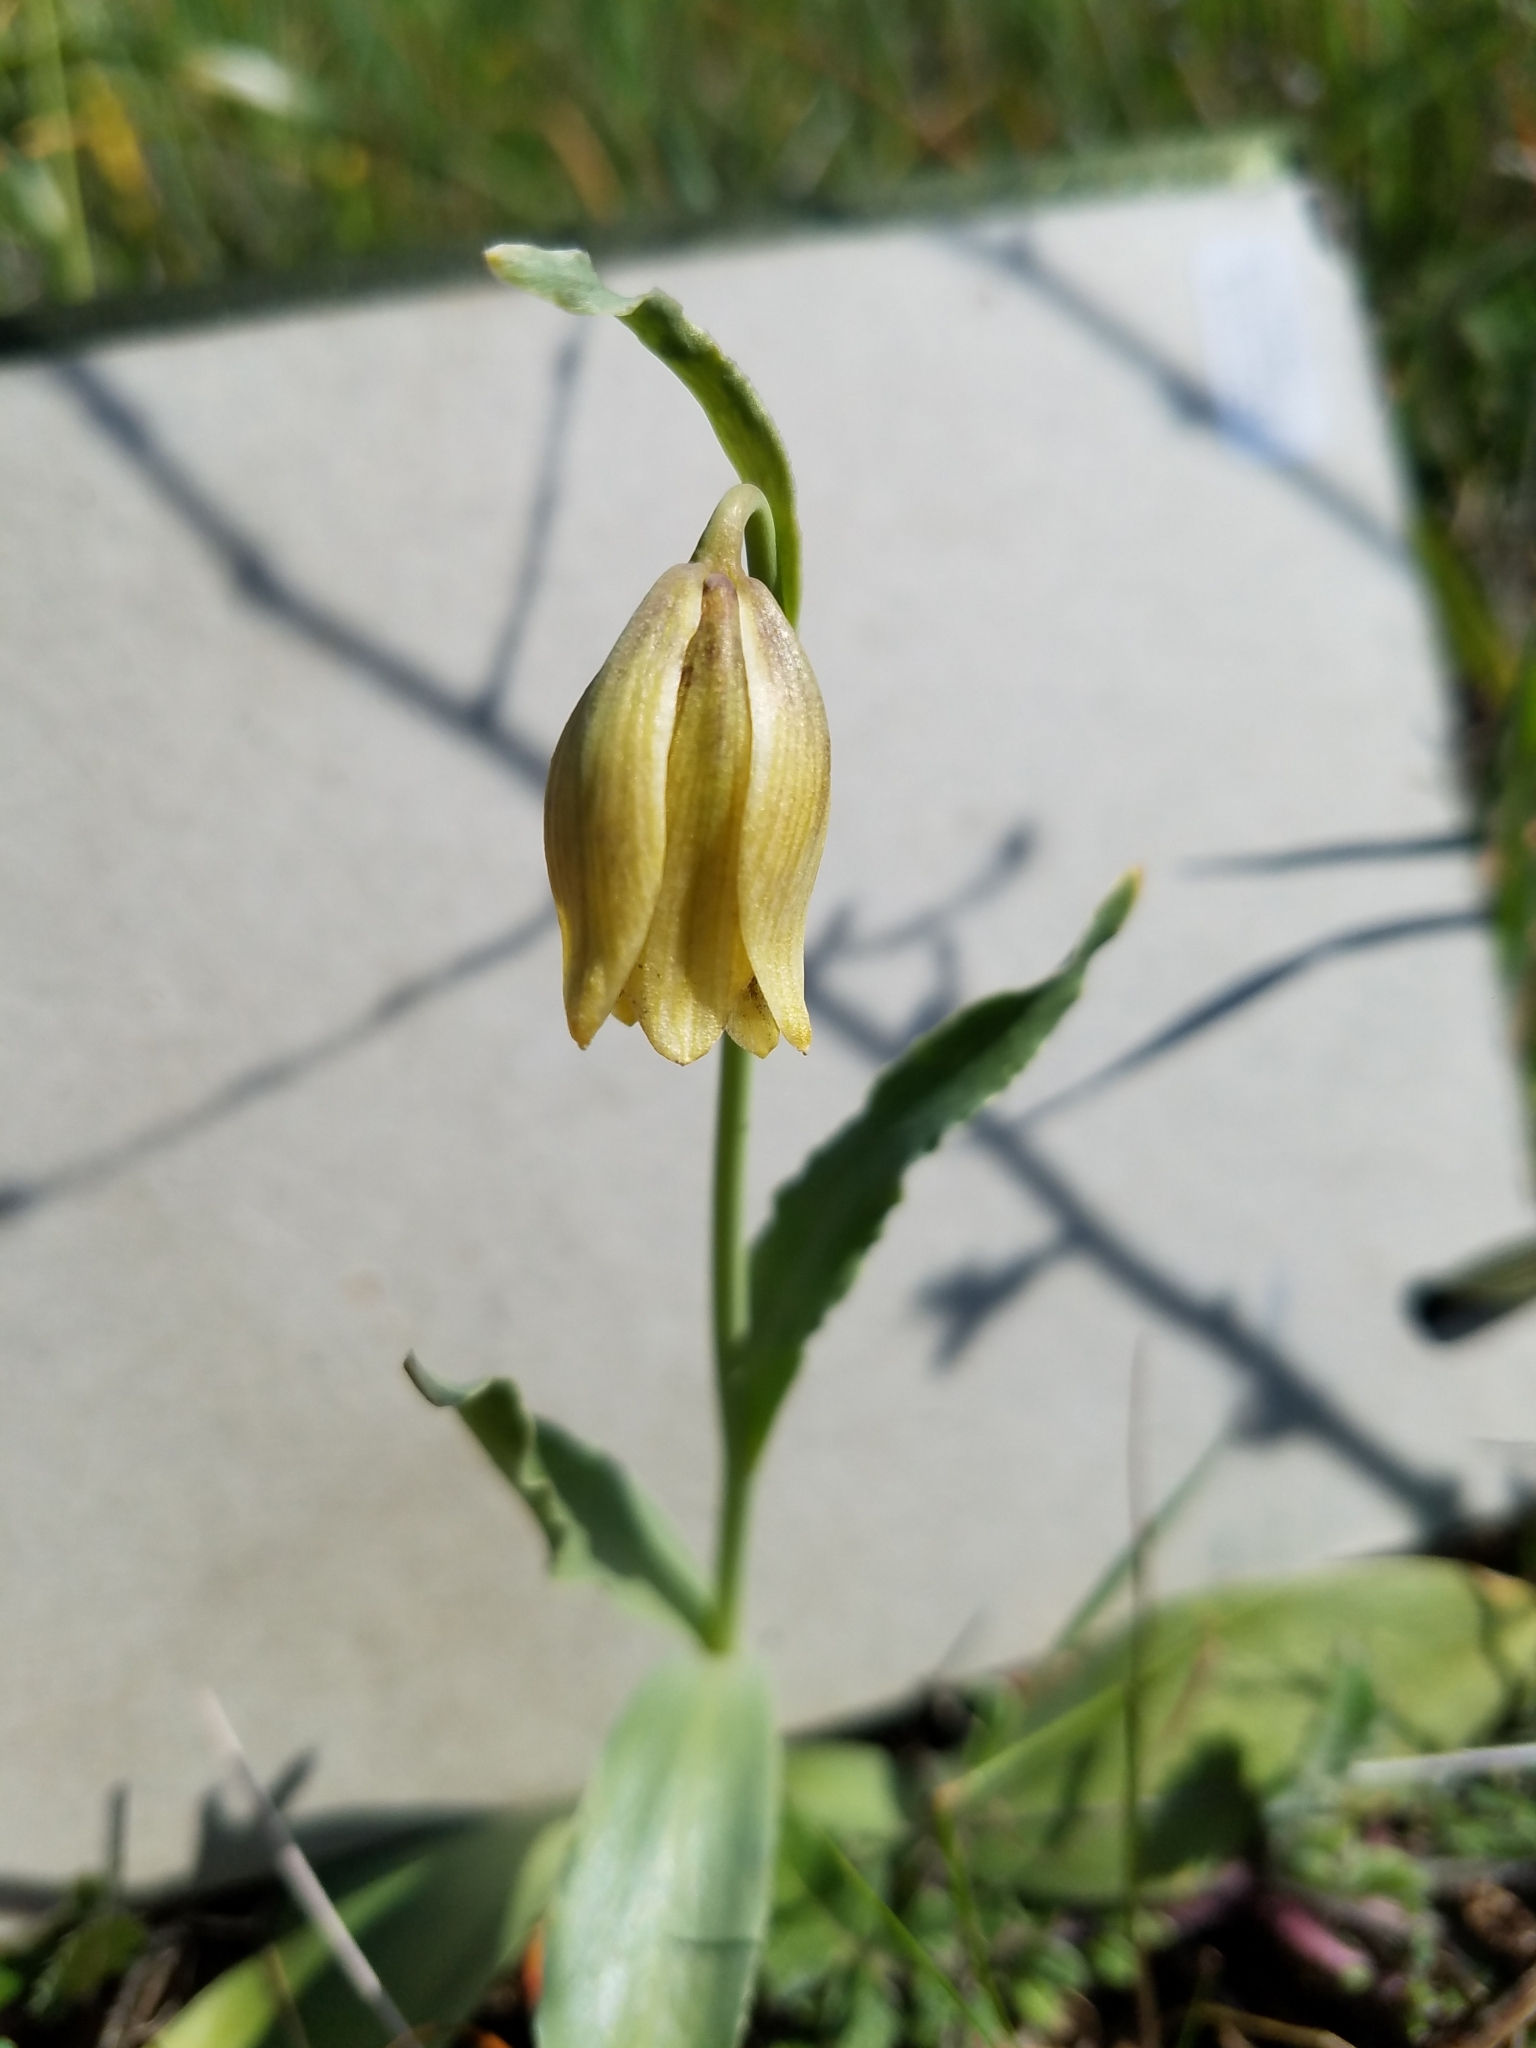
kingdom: Plantae
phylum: Tracheophyta
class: Liliopsida
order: Liliales
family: Liliaceae
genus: Fritillaria
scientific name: Fritillaria agrestis
